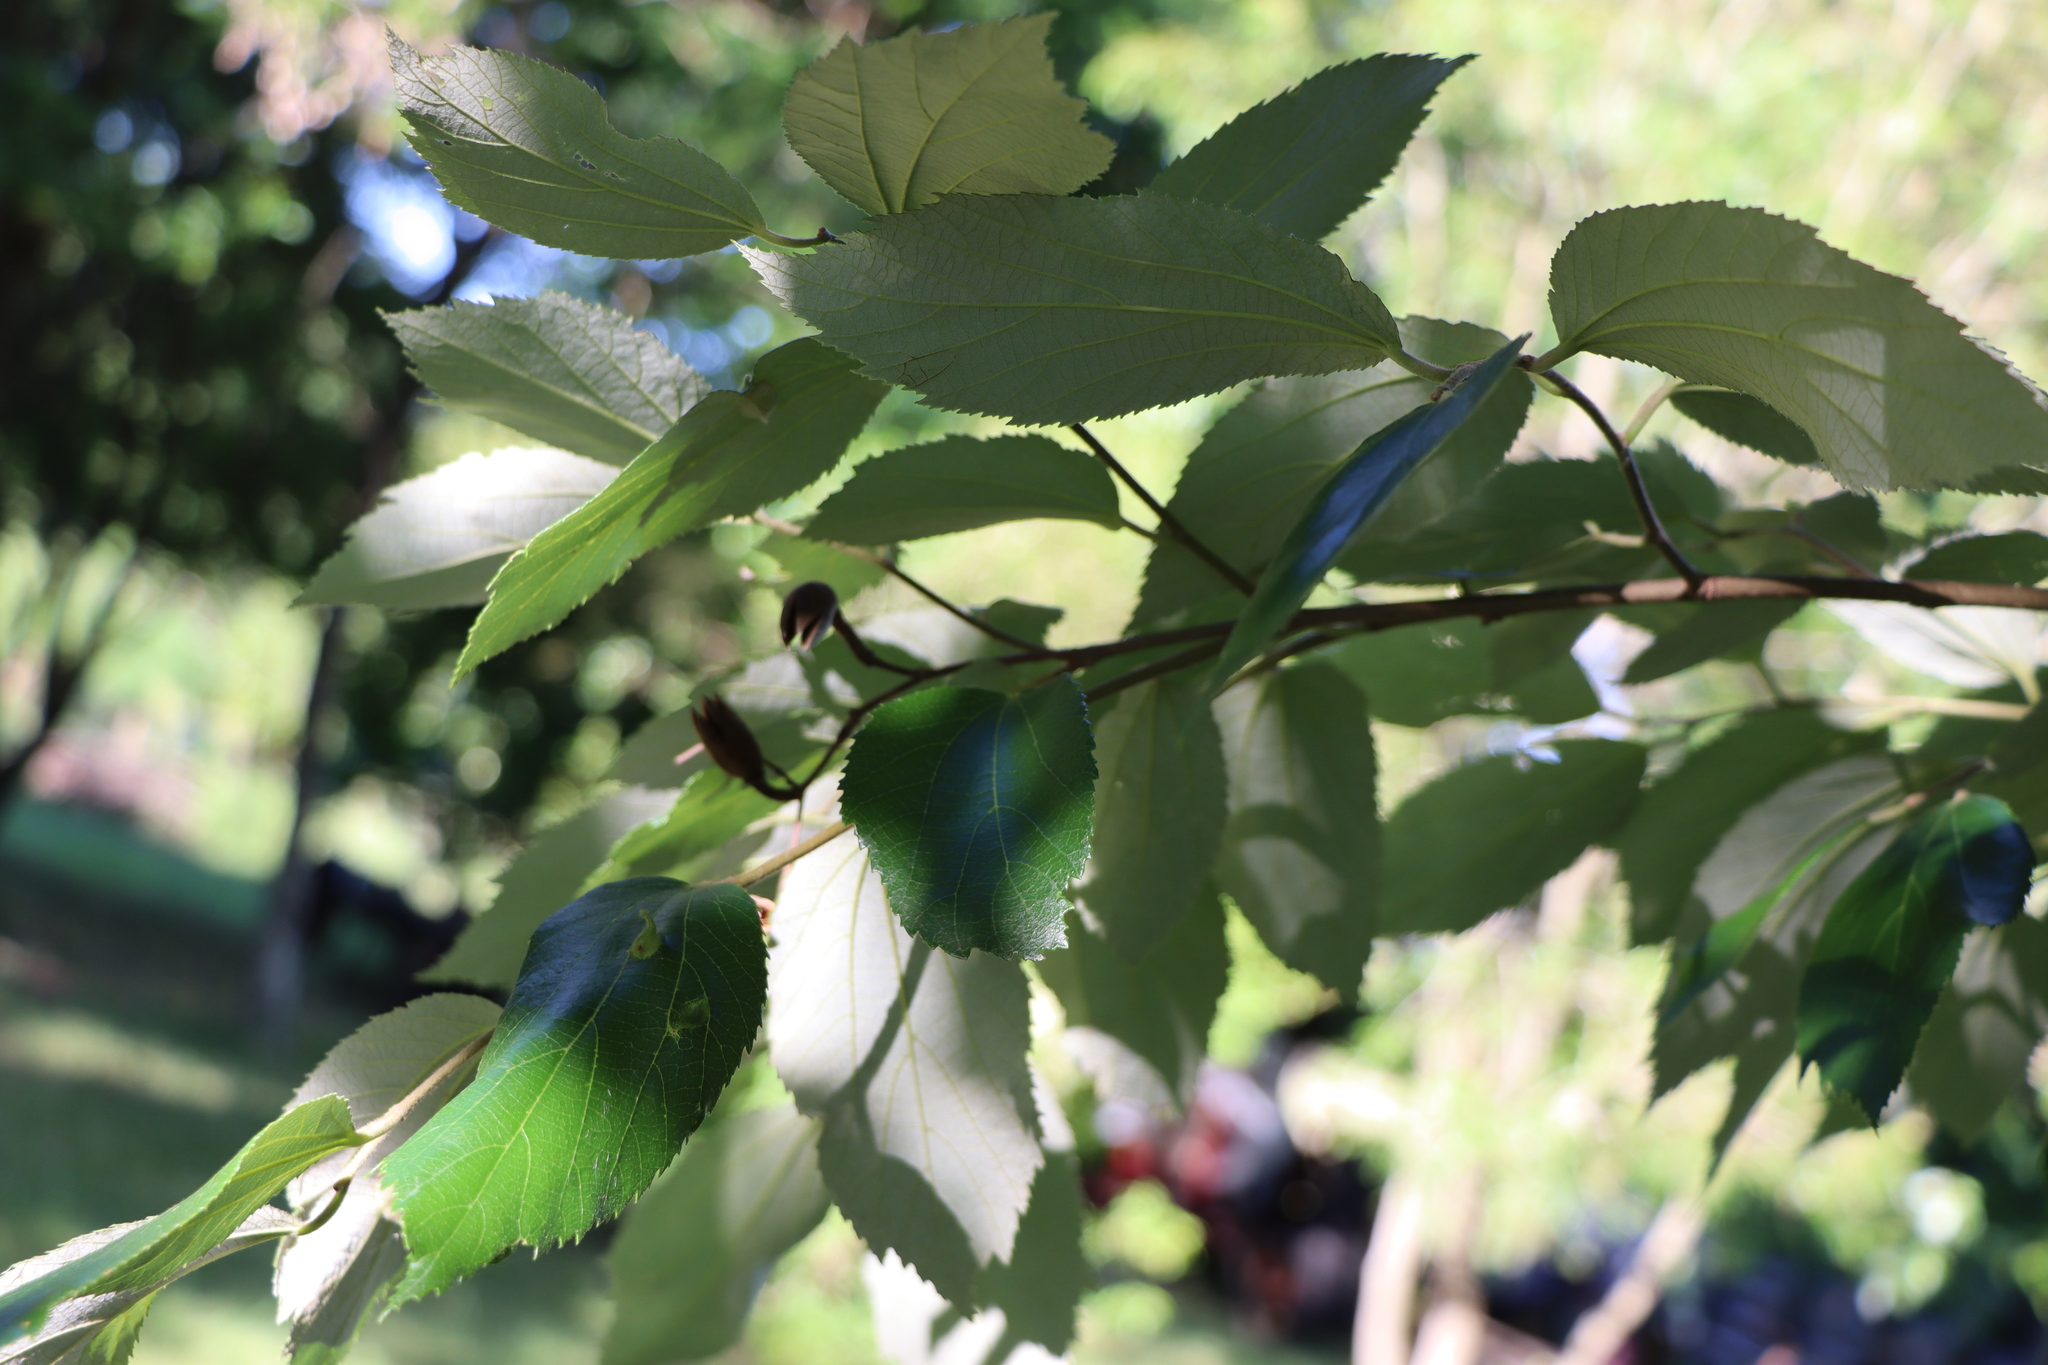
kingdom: Plantae
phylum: Tracheophyta
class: Magnoliopsida
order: Malvales
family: Malvaceae
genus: Luehea
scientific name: Luehea divaricata
